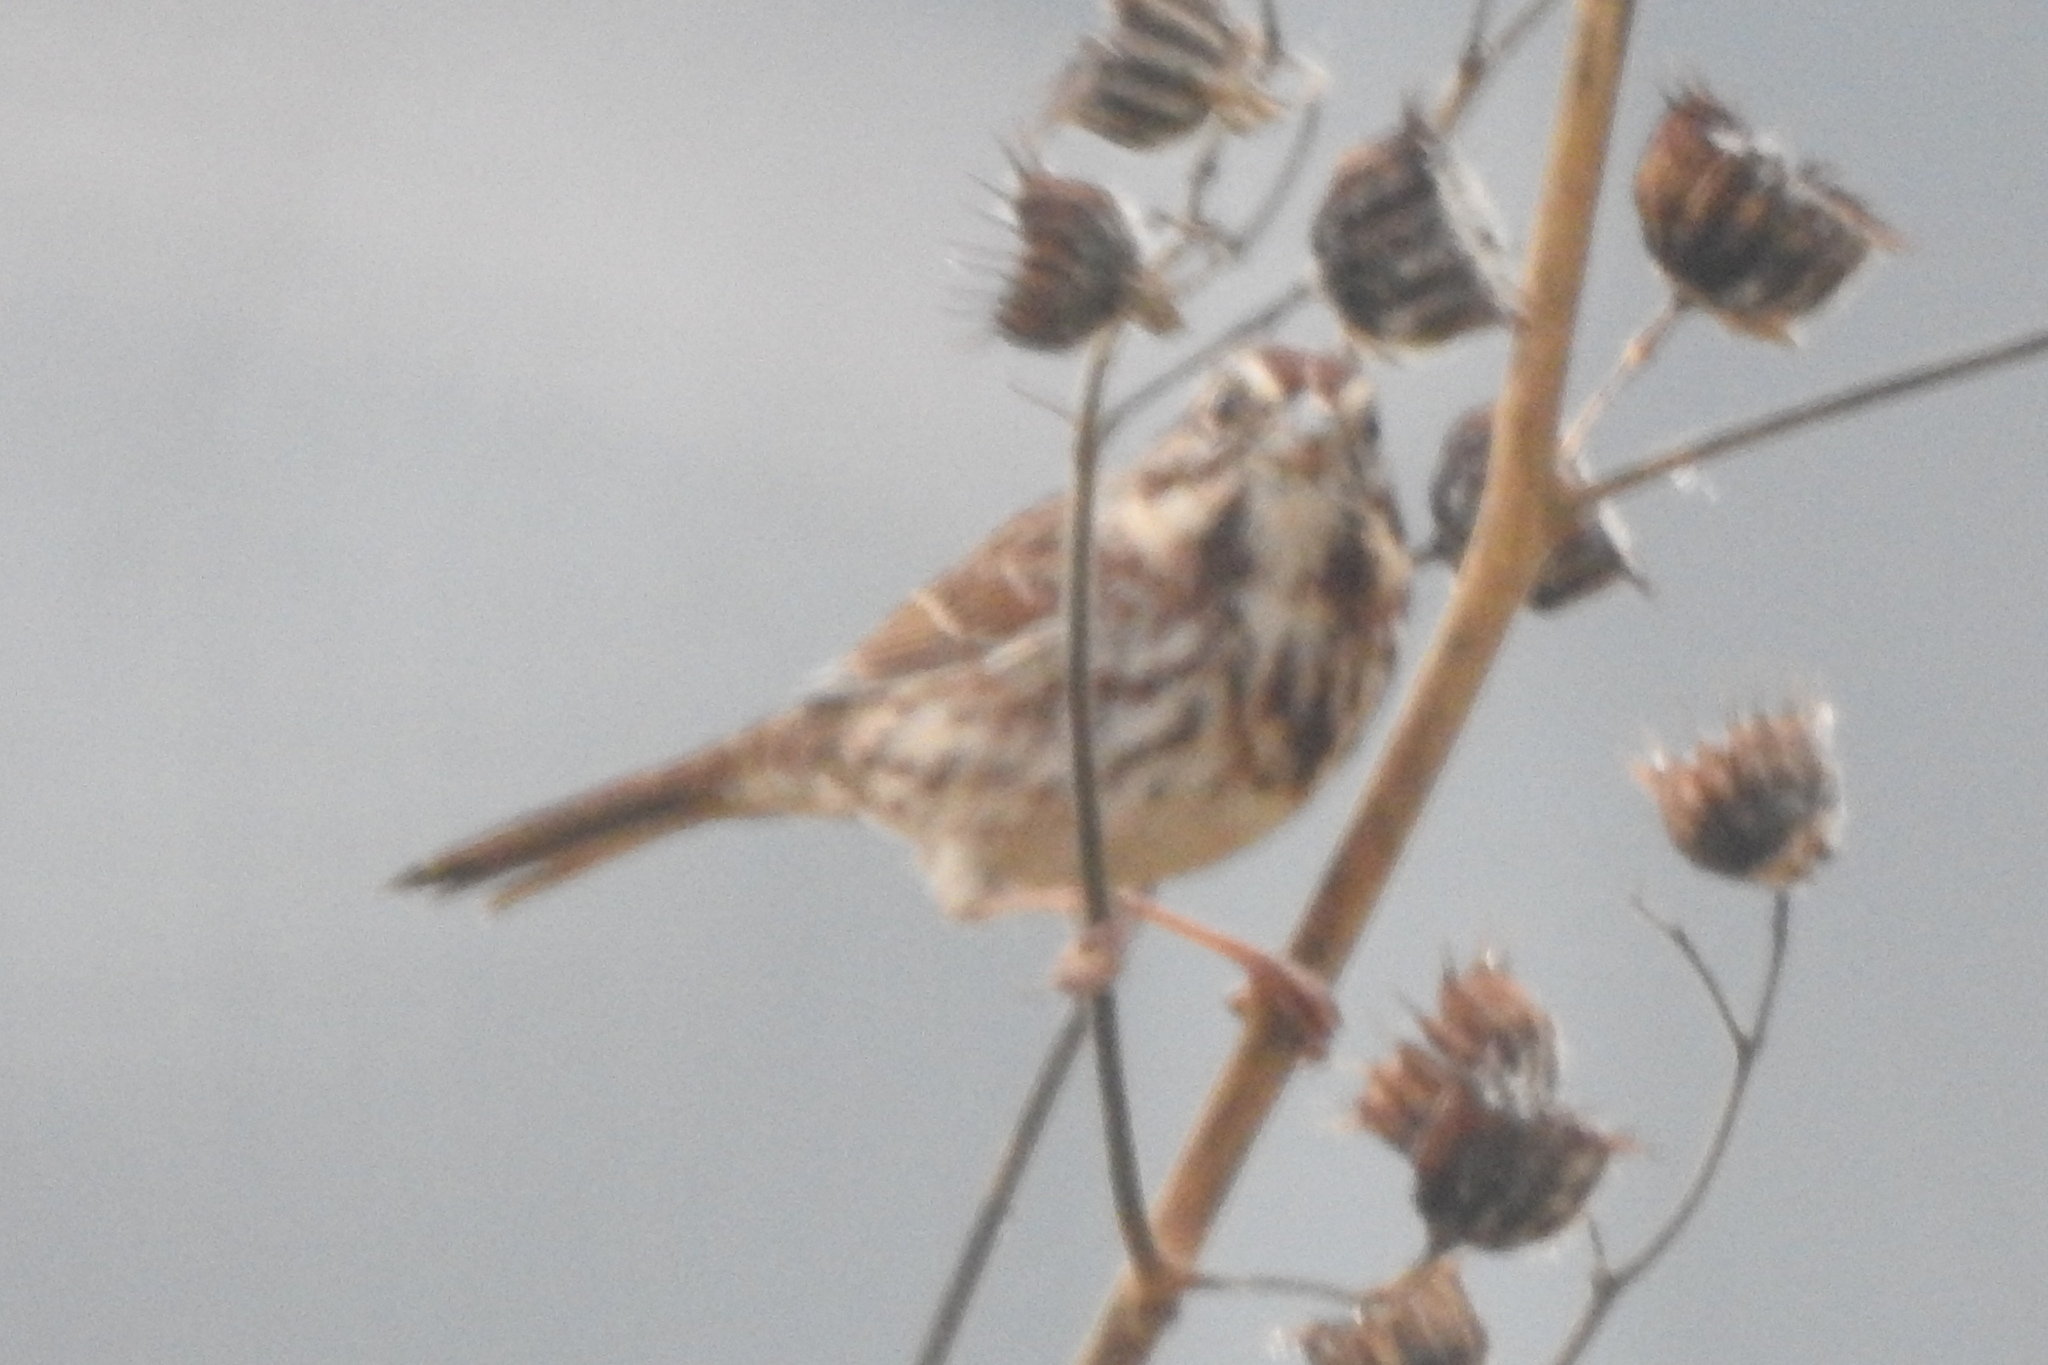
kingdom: Animalia
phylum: Chordata
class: Aves
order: Passeriformes
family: Passerellidae
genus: Melospiza
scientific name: Melospiza melodia
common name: Song sparrow
